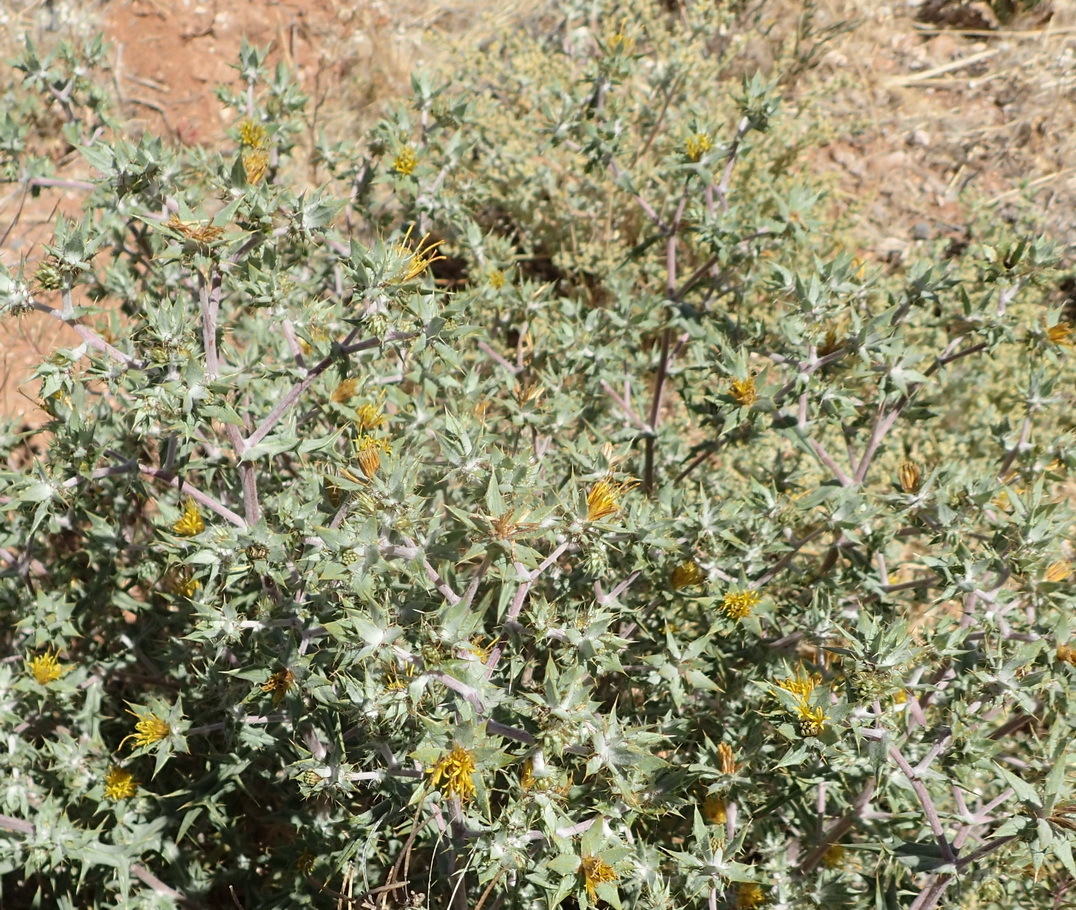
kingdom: Plantae
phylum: Tracheophyta
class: Magnoliopsida
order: Asterales
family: Asteraceae
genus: Berkheya
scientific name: Berkheya annectens
